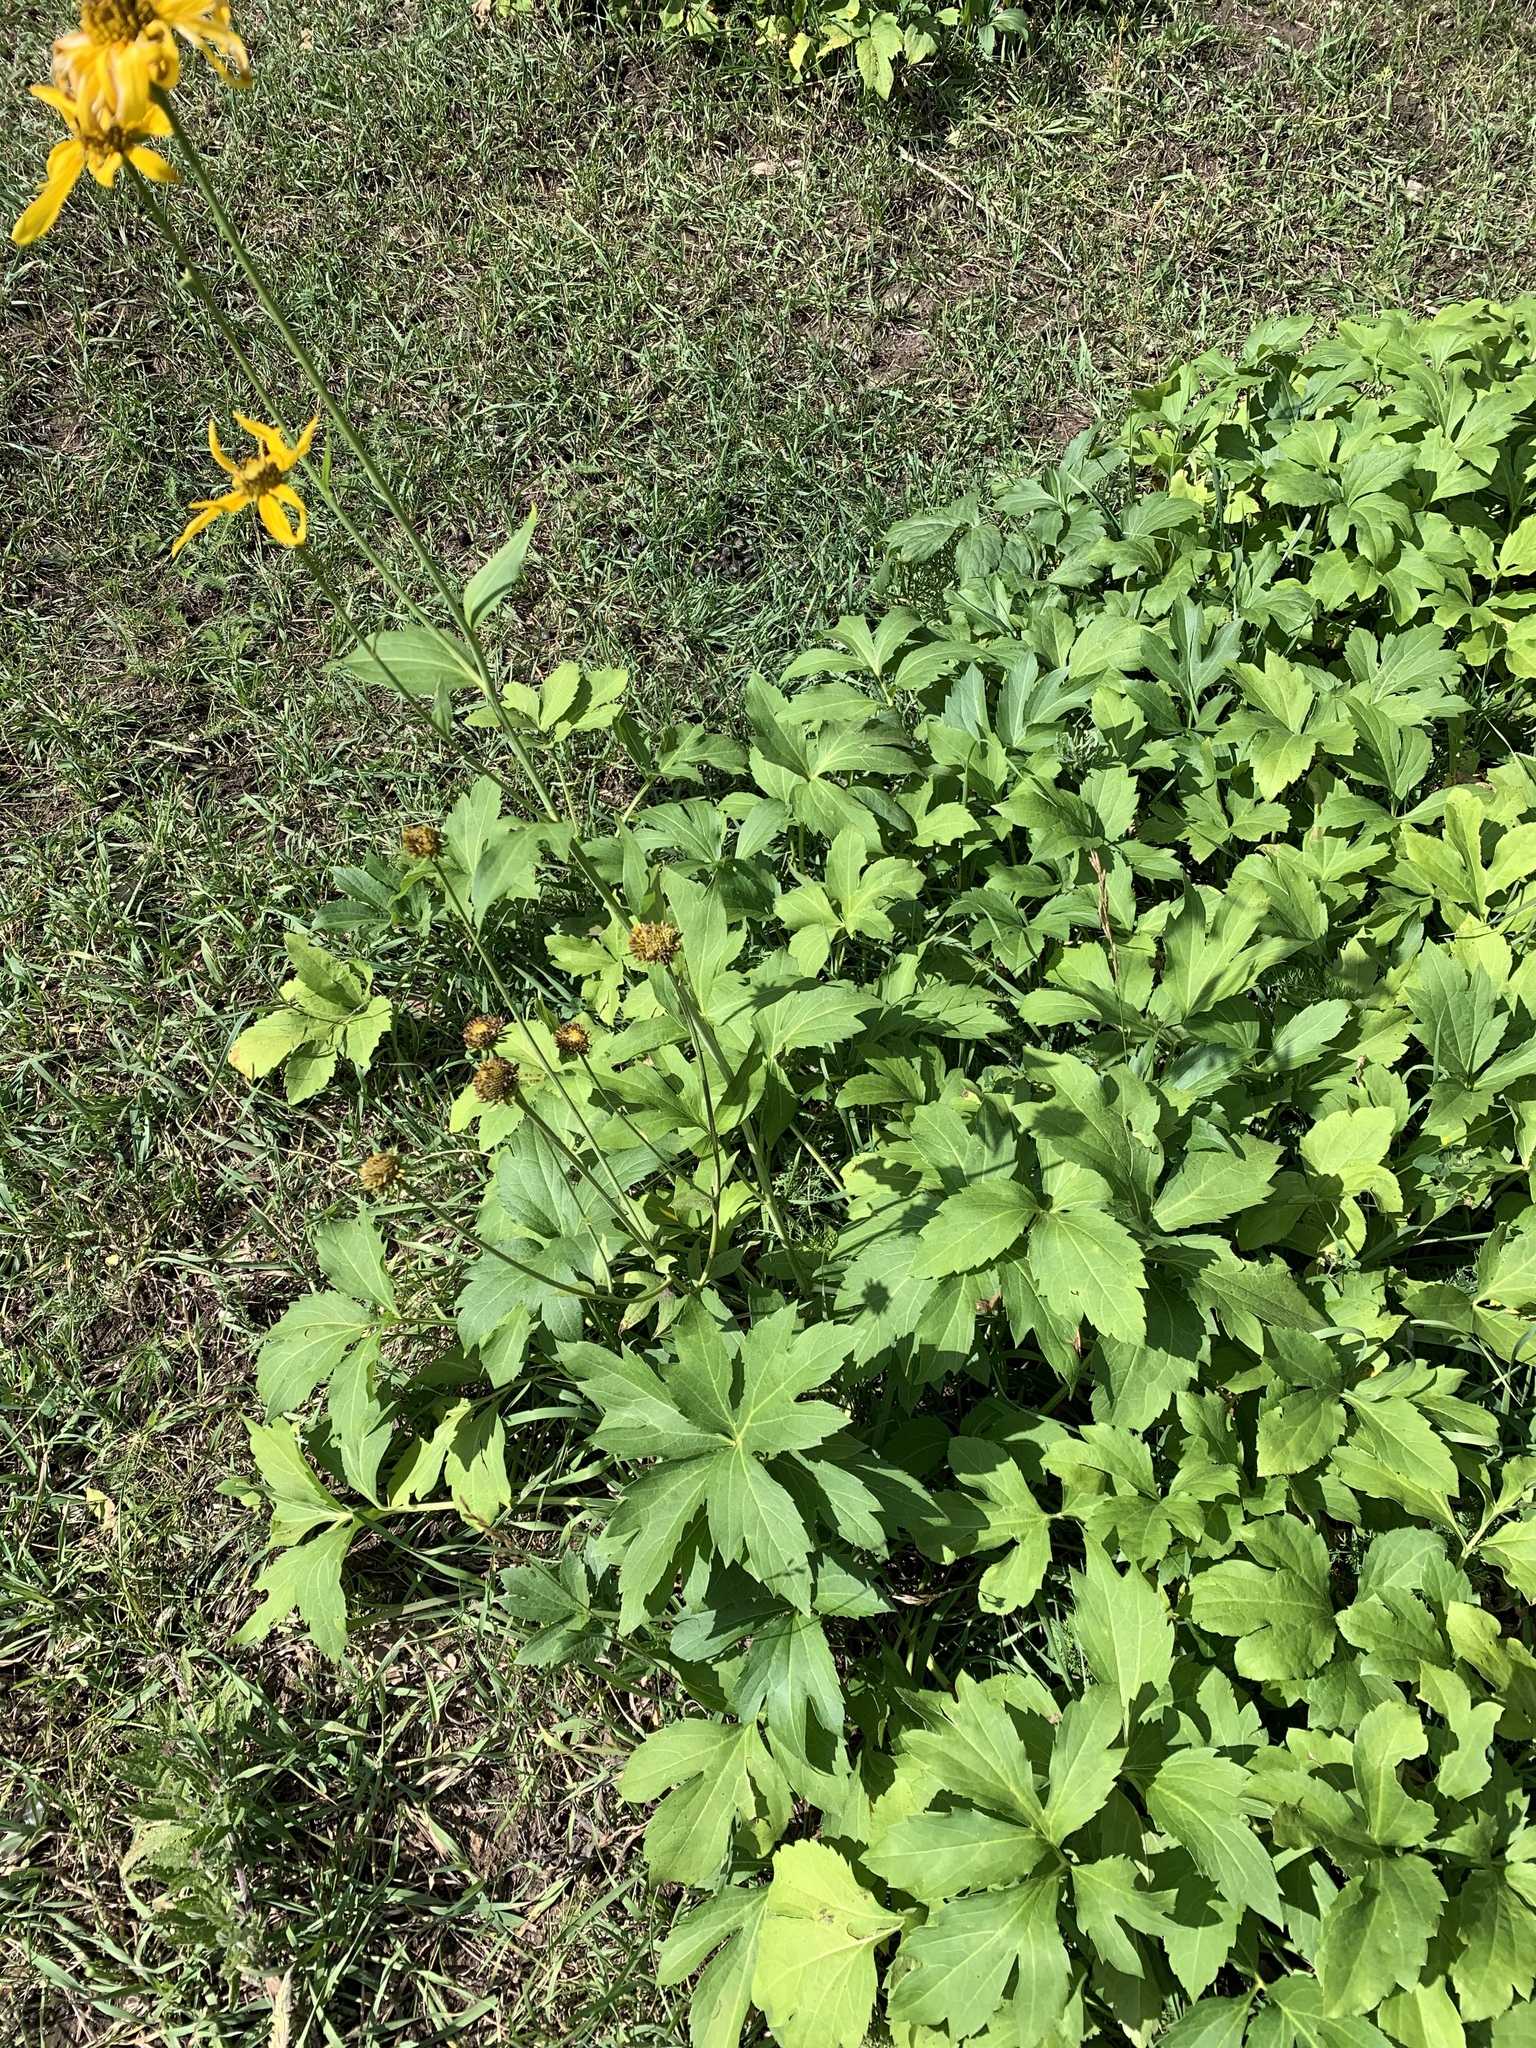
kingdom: Plantae
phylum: Tracheophyta
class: Magnoliopsida
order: Asterales
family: Asteraceae
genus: Rudbeckia
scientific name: Rudbeckia laciniata
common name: Coneflower
